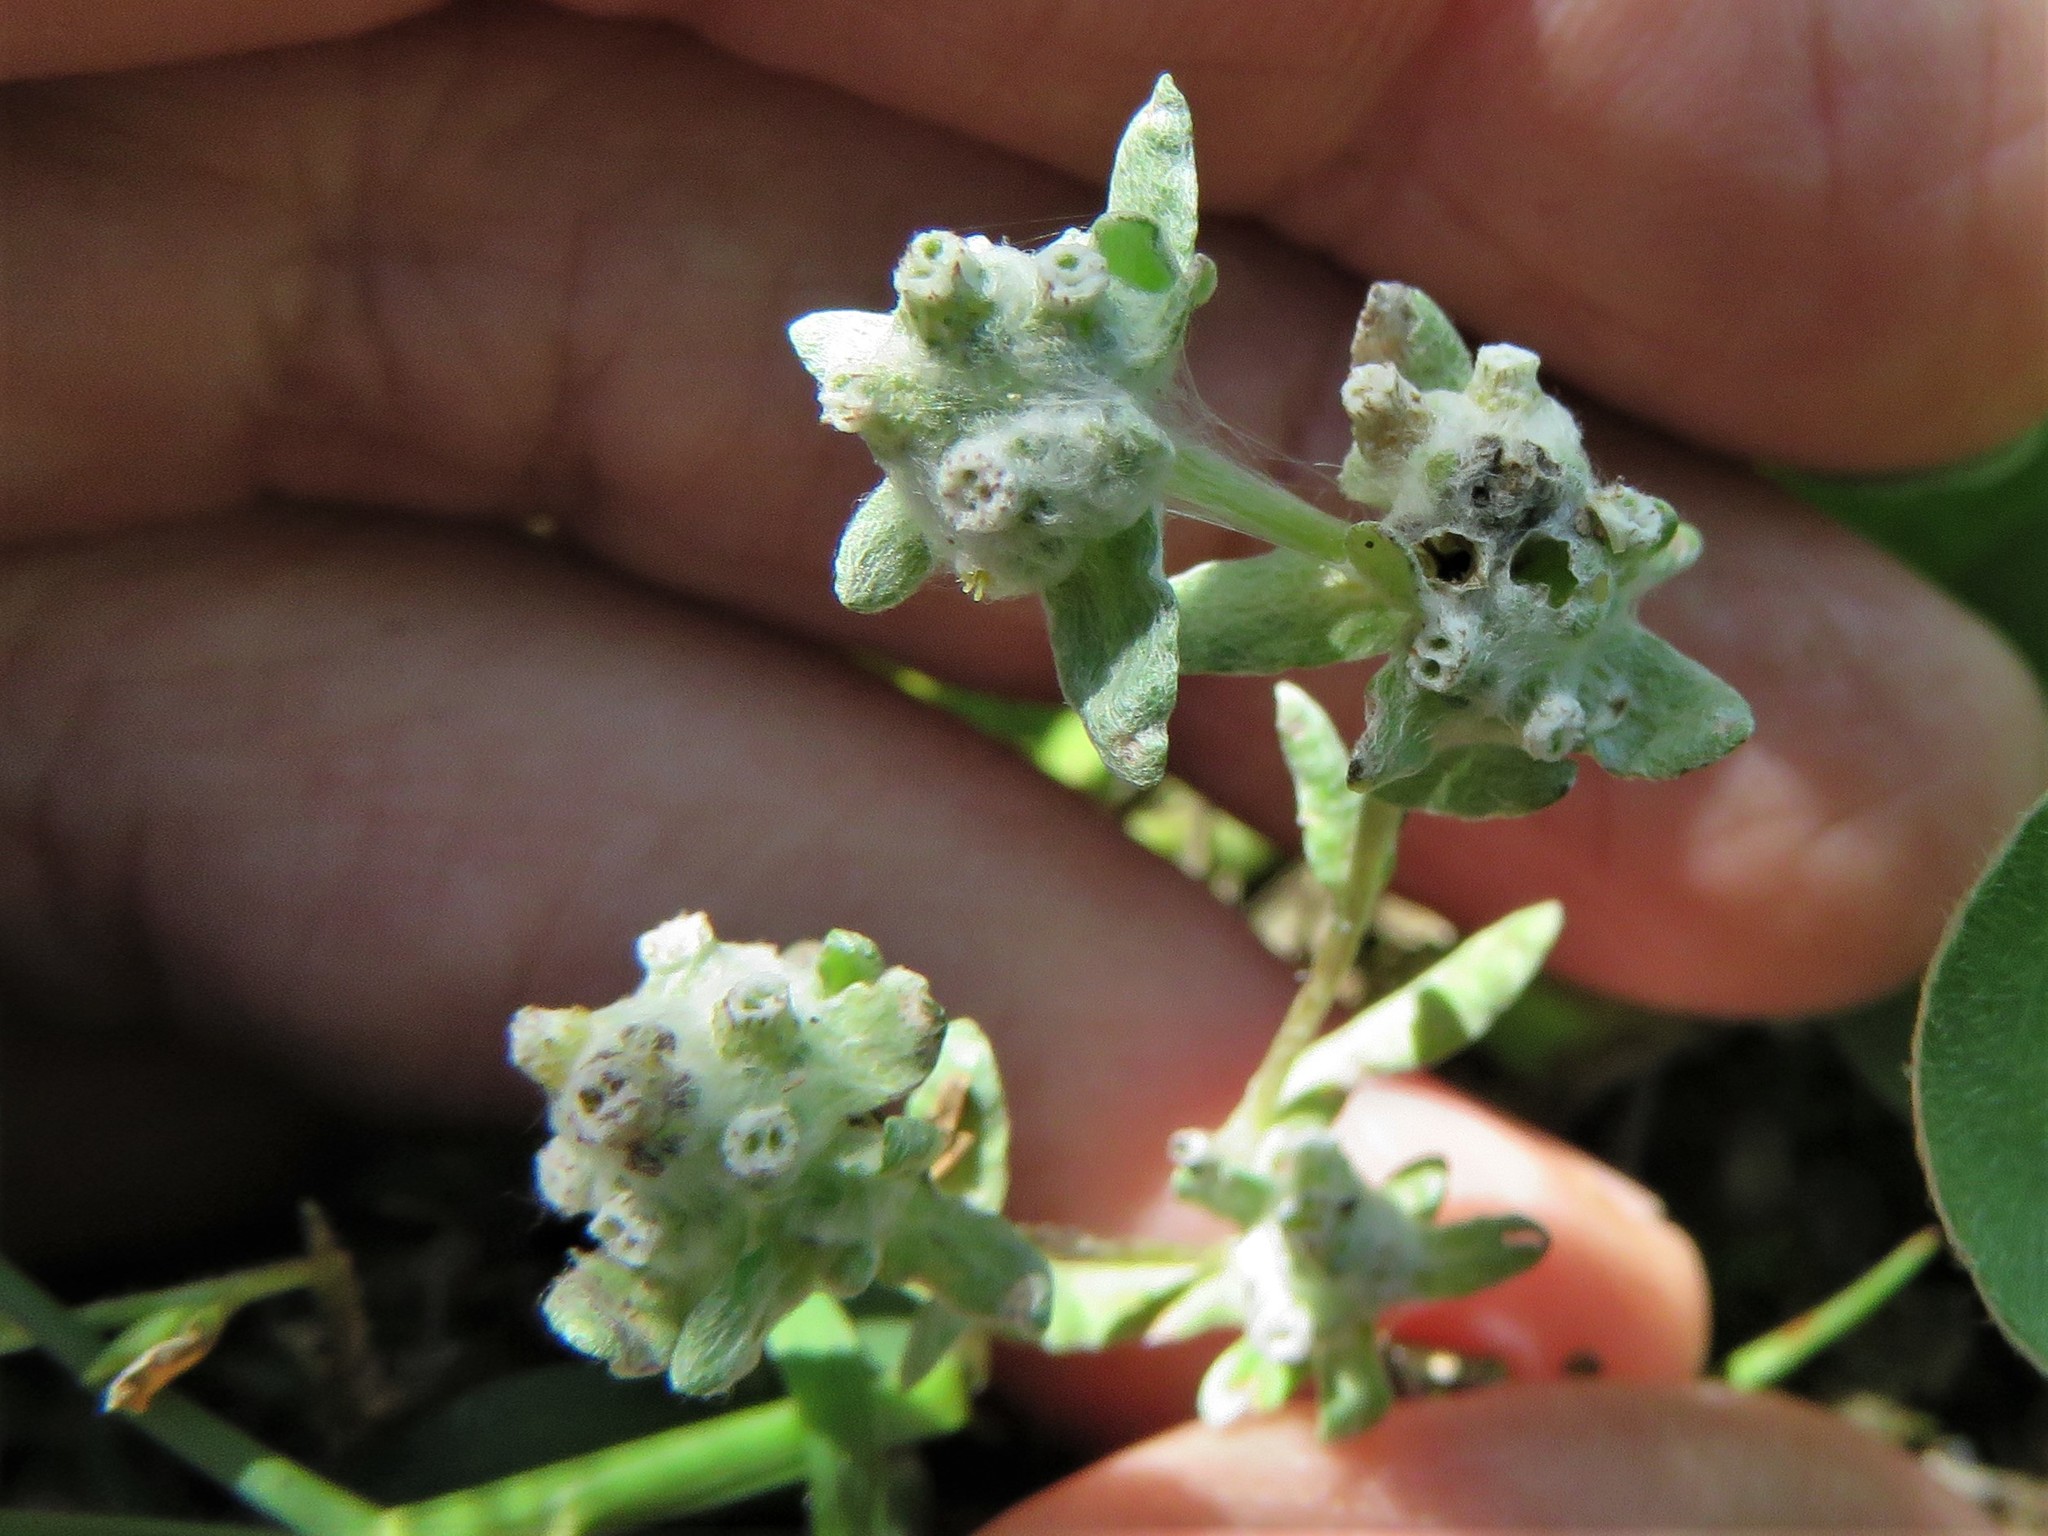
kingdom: Plantae
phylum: Tracheophyta
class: Magnoliopsida
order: Asterales
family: Asteraceae
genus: Diaperia
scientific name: Diaperia verna
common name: Many-stem rabbit-tobacco
